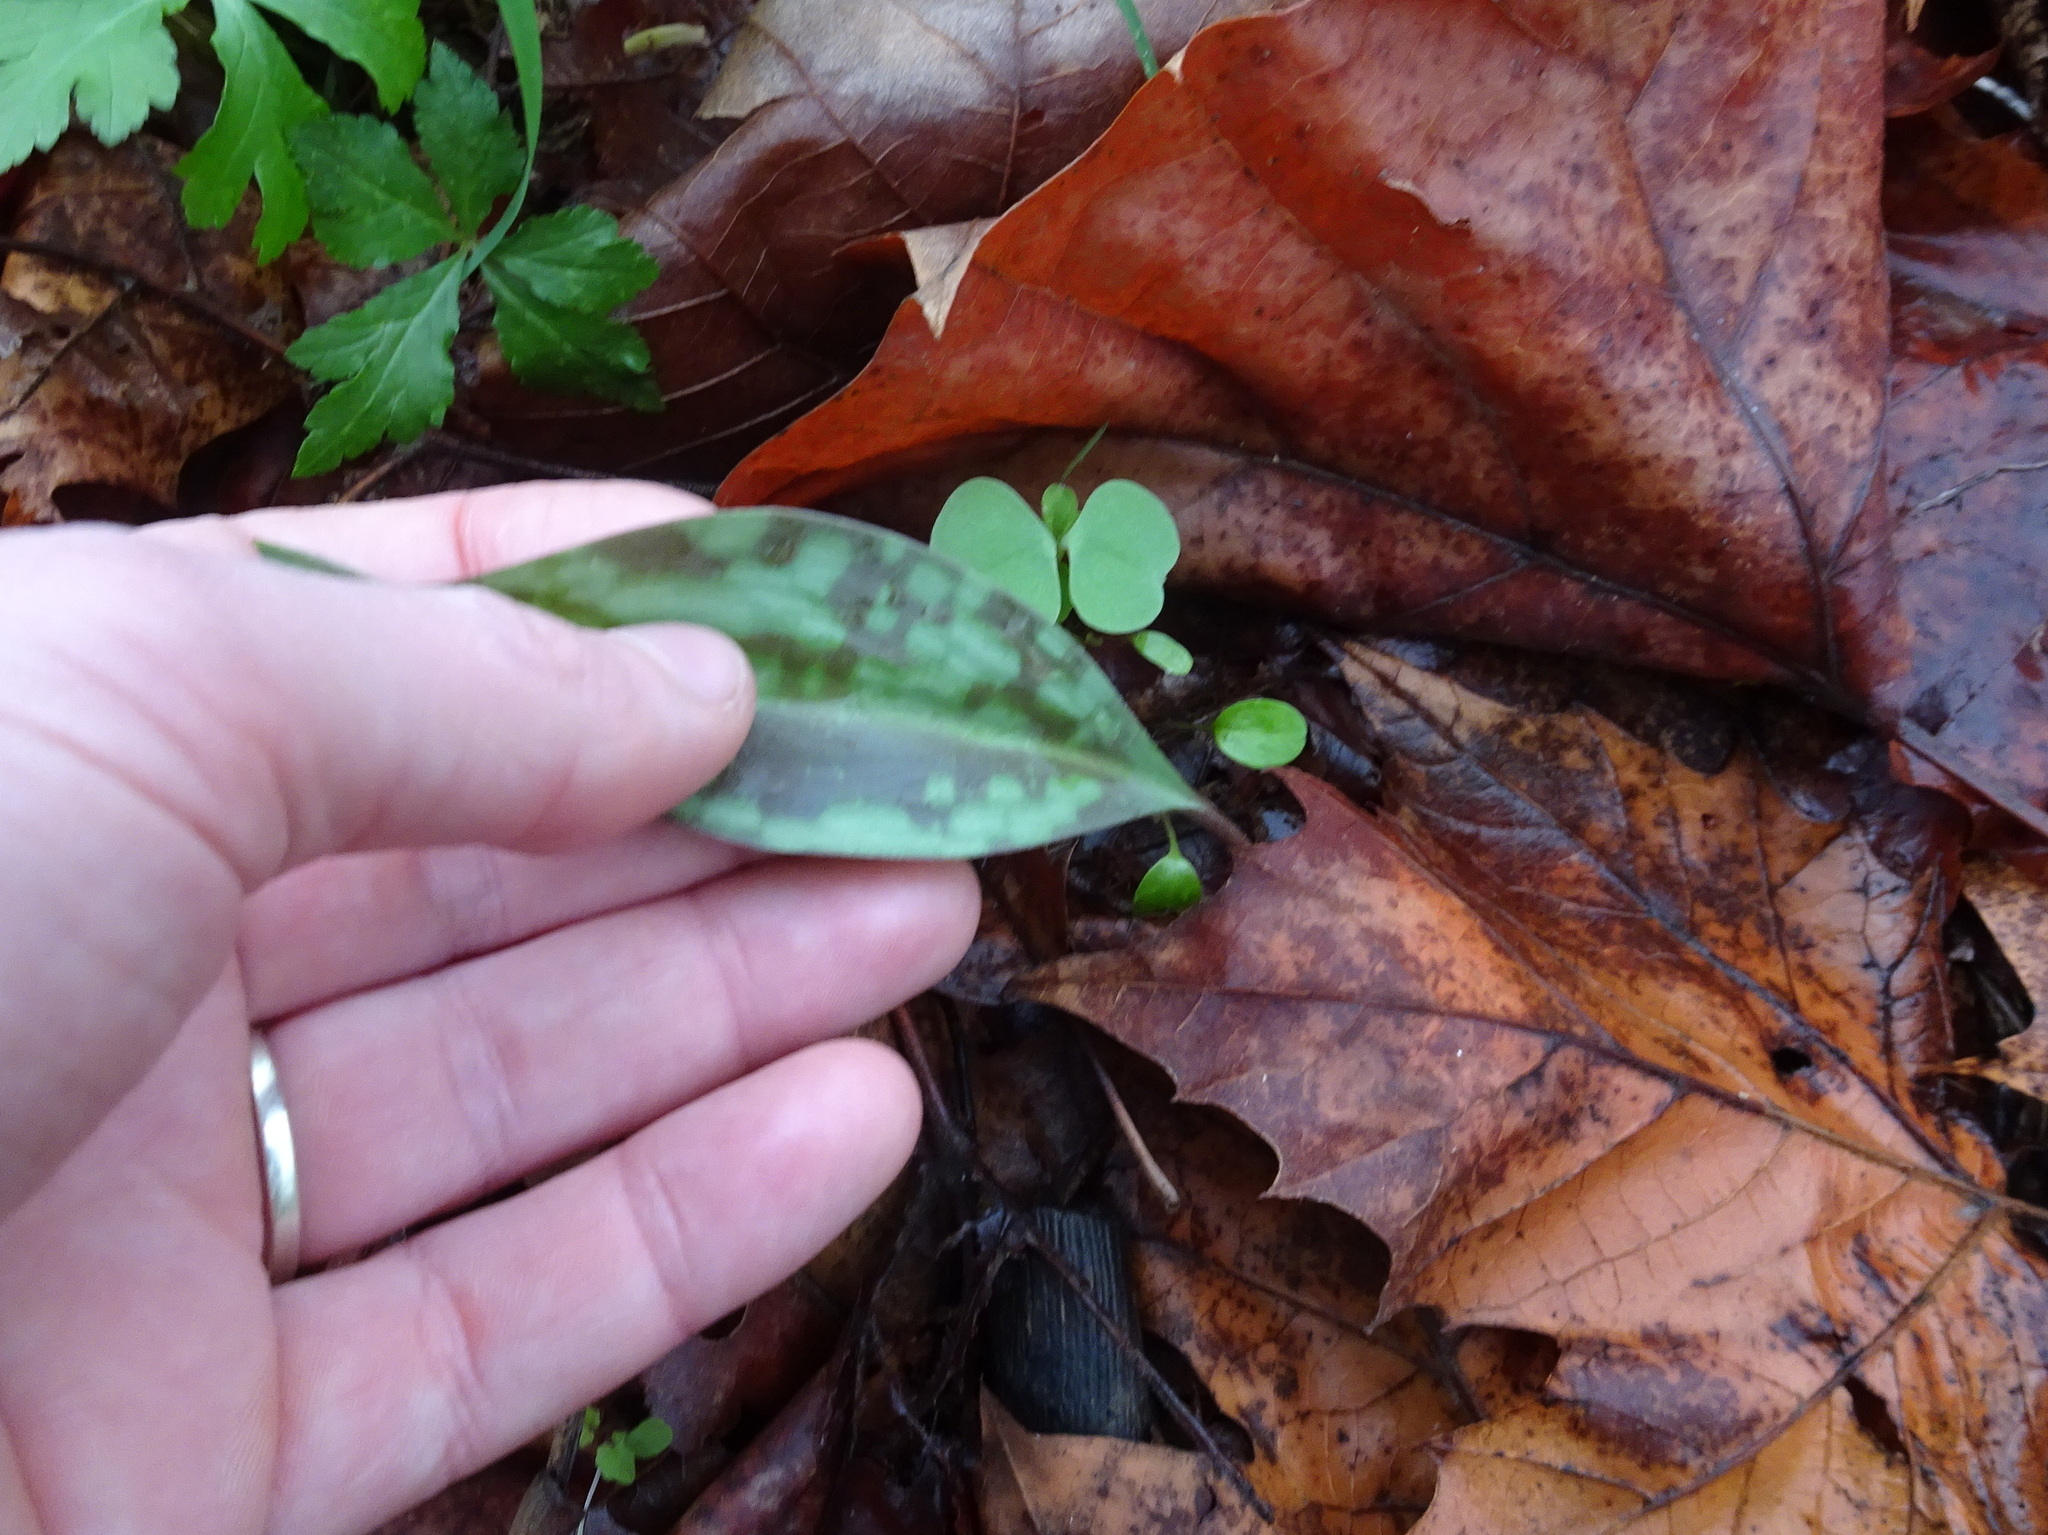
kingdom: Plantae
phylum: Tracheophyta
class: Liliopsida
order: Liliales
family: Liliaceae
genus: Erythronium
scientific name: Erythronium albidum
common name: White trout-lily
